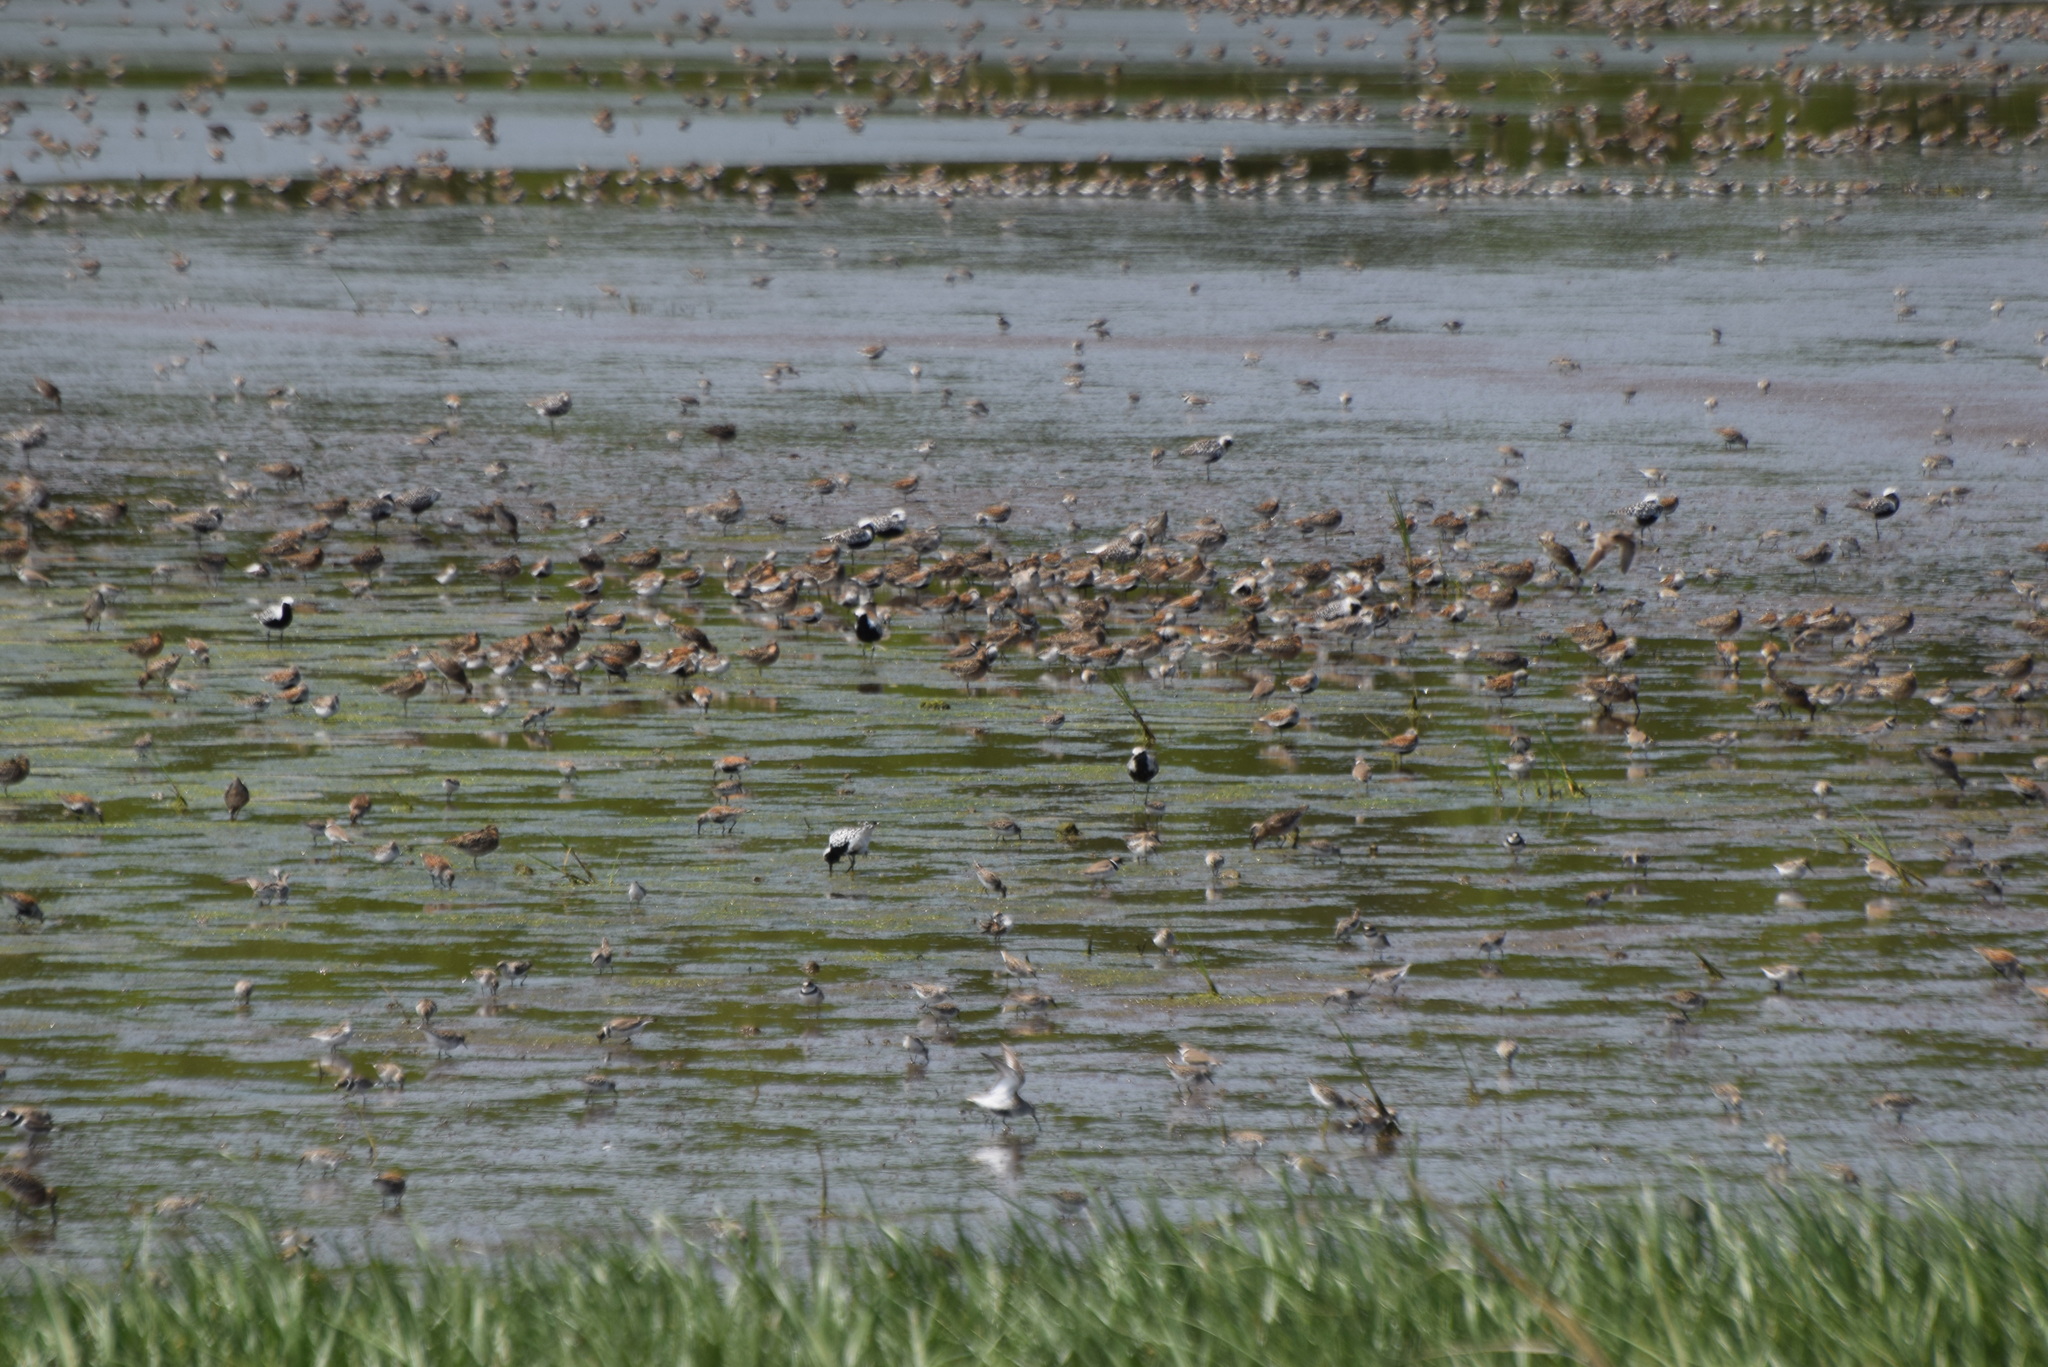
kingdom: Animalia
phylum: Chordata
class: Aves
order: Charadriiformes
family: Charadriidae
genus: Pluvialis
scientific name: Pluvialis squatarola
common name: Grey plover
